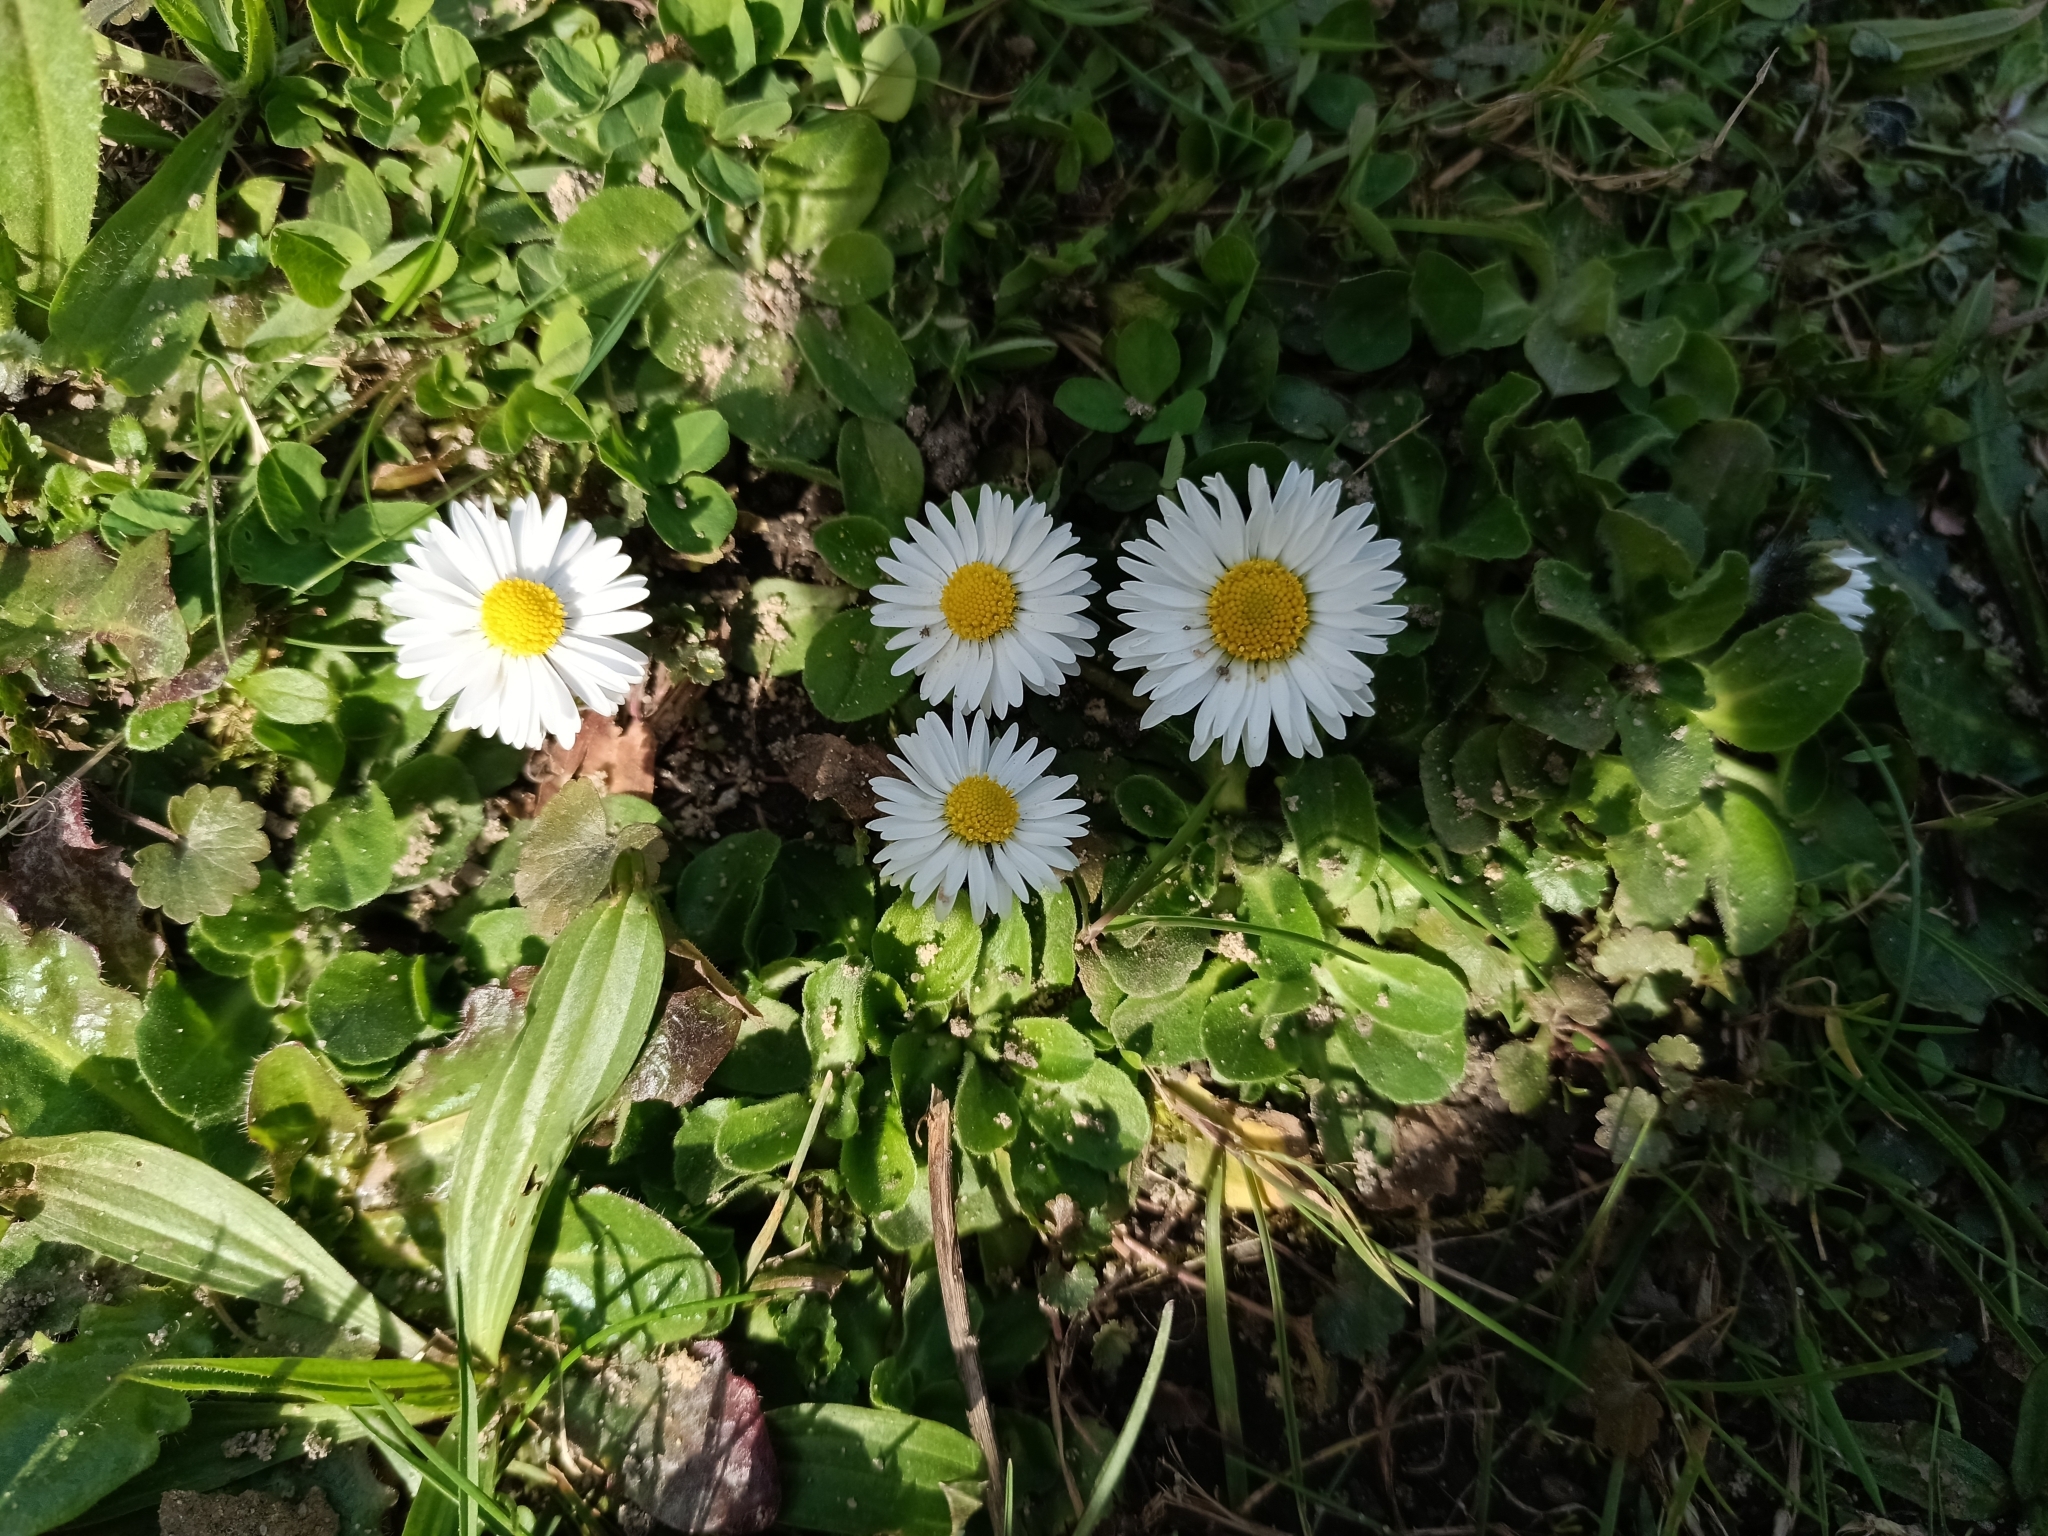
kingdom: Plantae
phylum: Tracheophyta
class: Magnoliopsida
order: Asterales
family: Asteraceae
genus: Bellis
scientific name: Bellis perennis
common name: Lawndaisy
